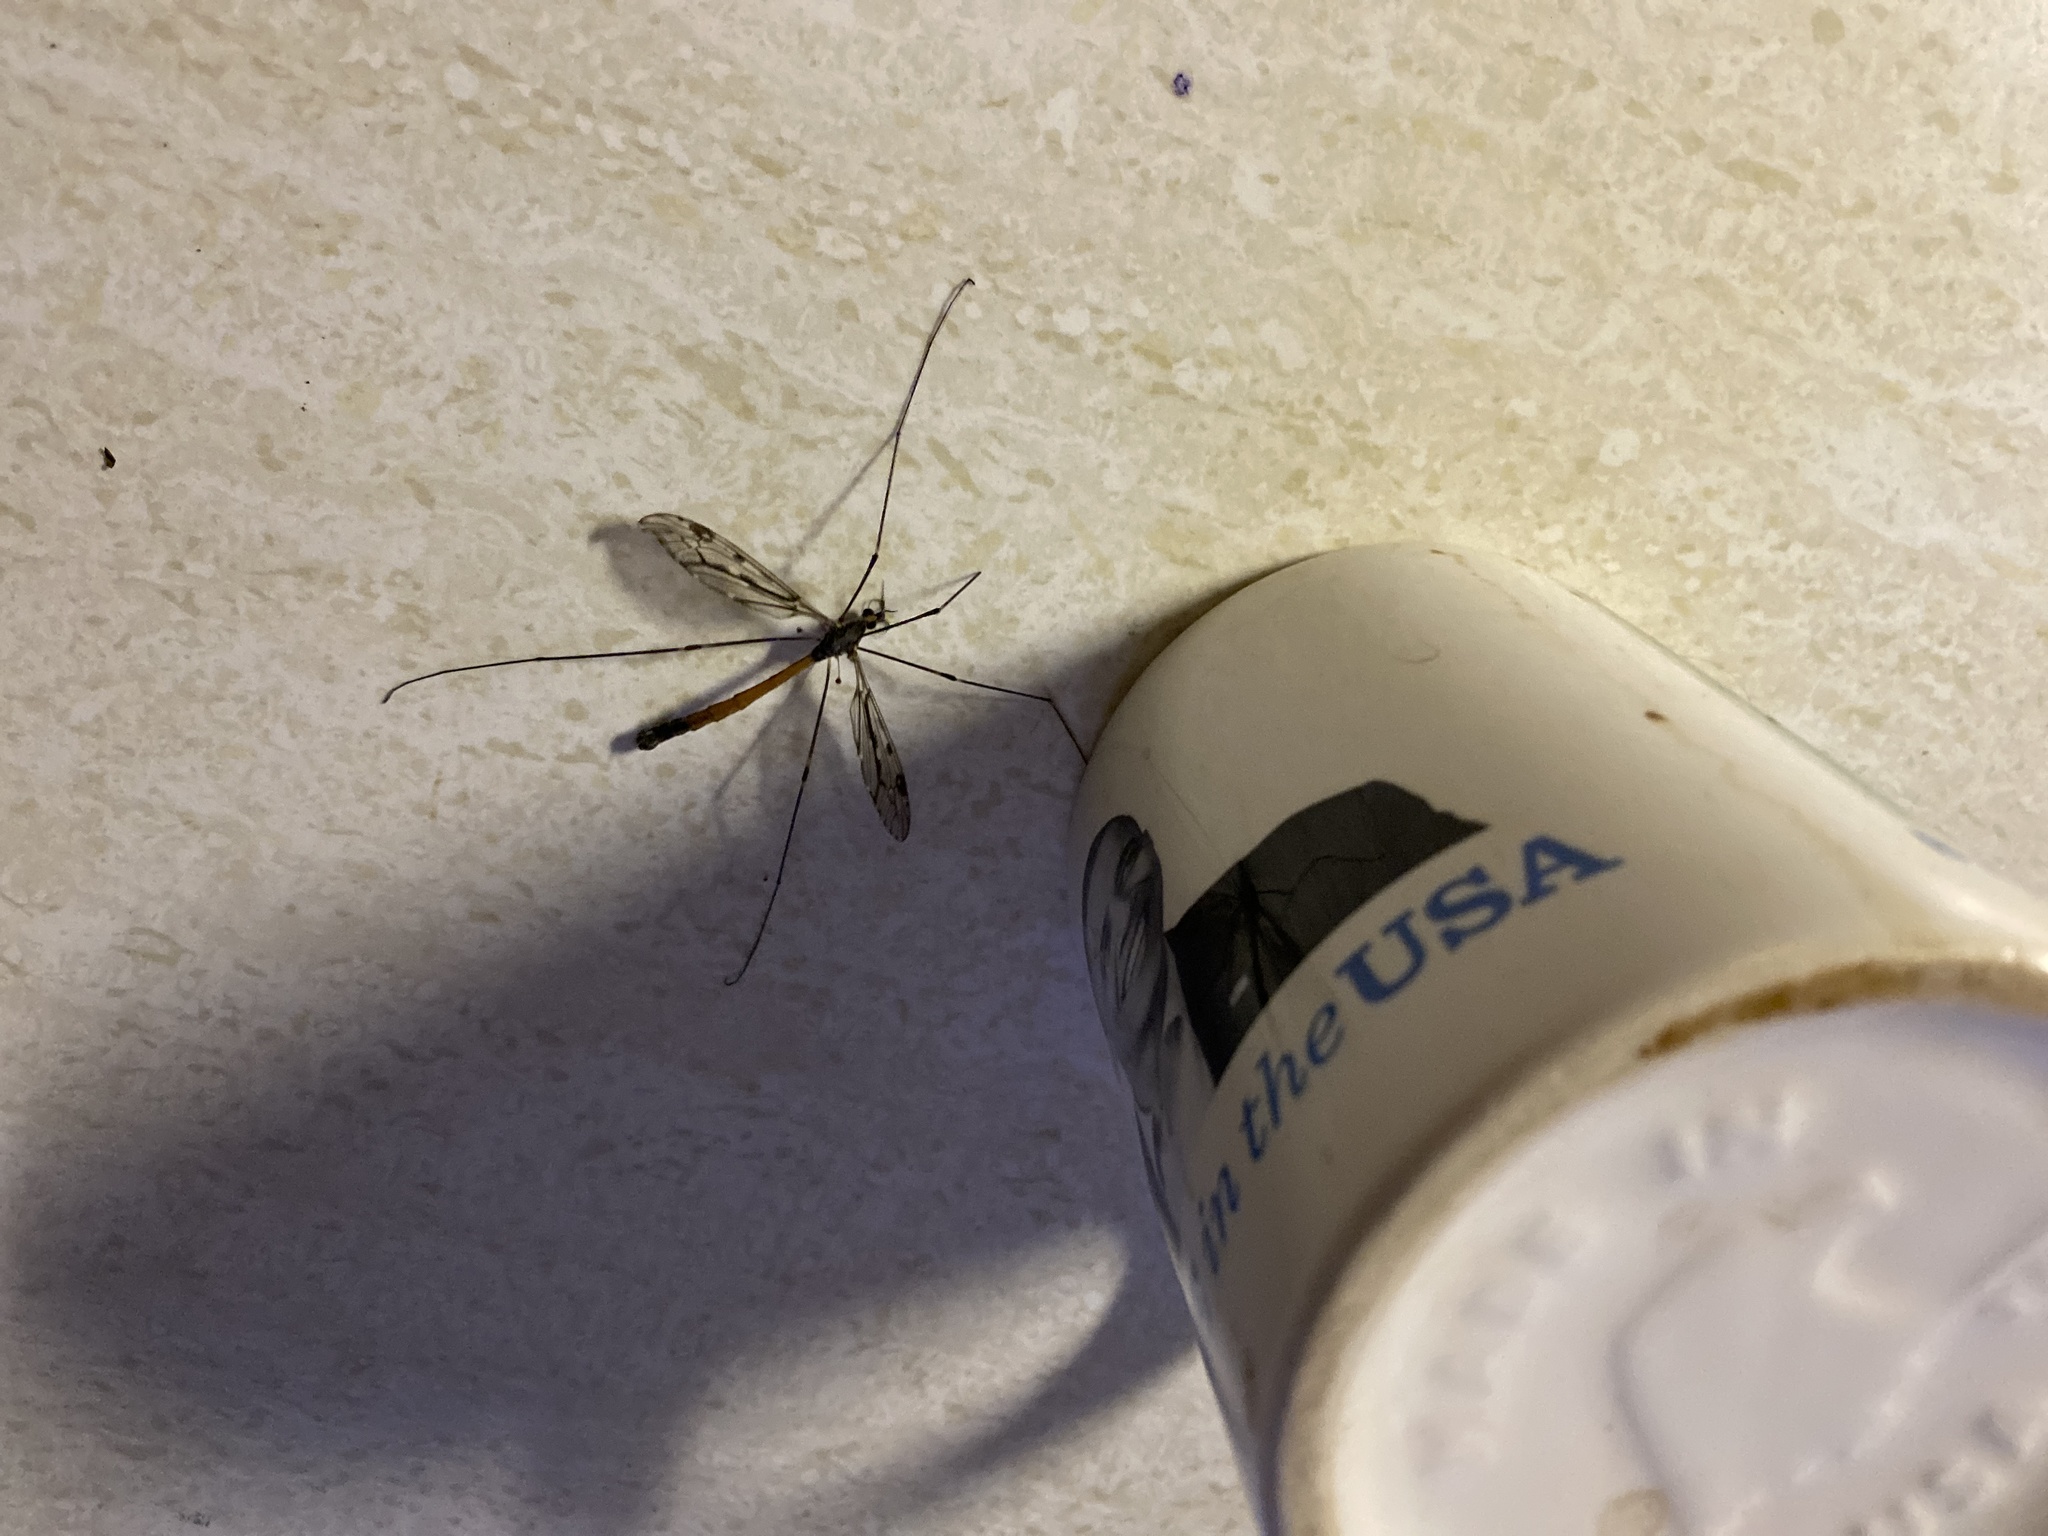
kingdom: Animalia
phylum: Arthropoda
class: Insecta
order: Diptera
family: Tipulidae
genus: Tipula
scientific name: Tipula abdominalis
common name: Giant crane fly
